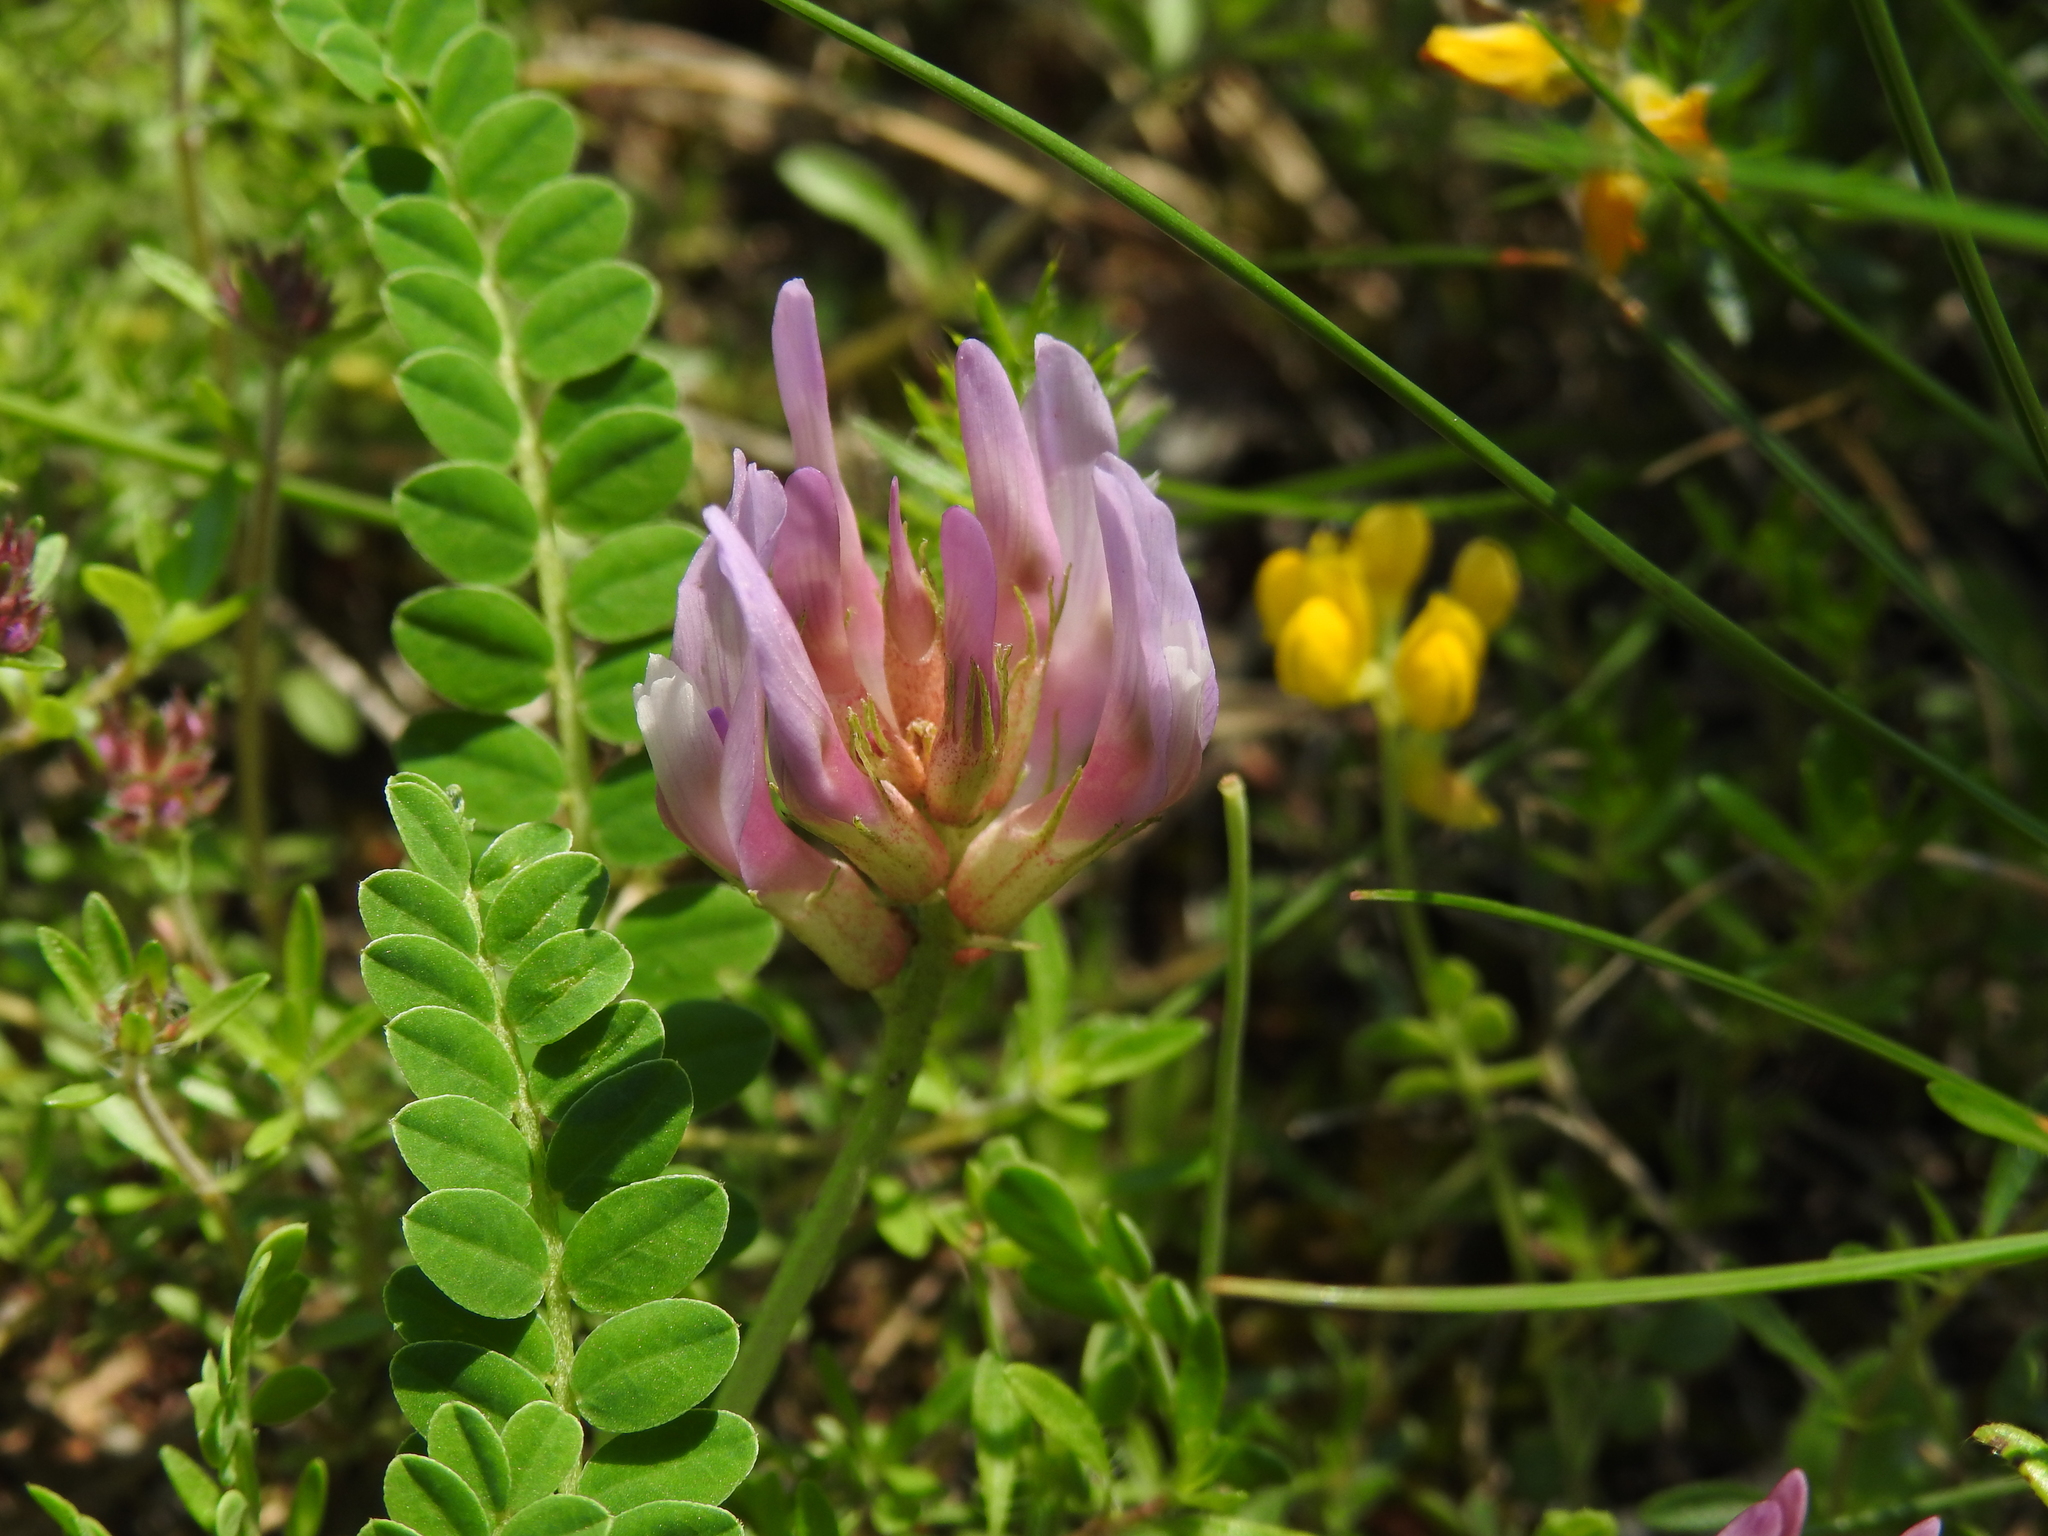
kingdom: Plantae
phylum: Tracheophyta
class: Magnoliopsida
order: Fabales
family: Fabaceae
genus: Astragalus
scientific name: Astragalus monspessulanus
